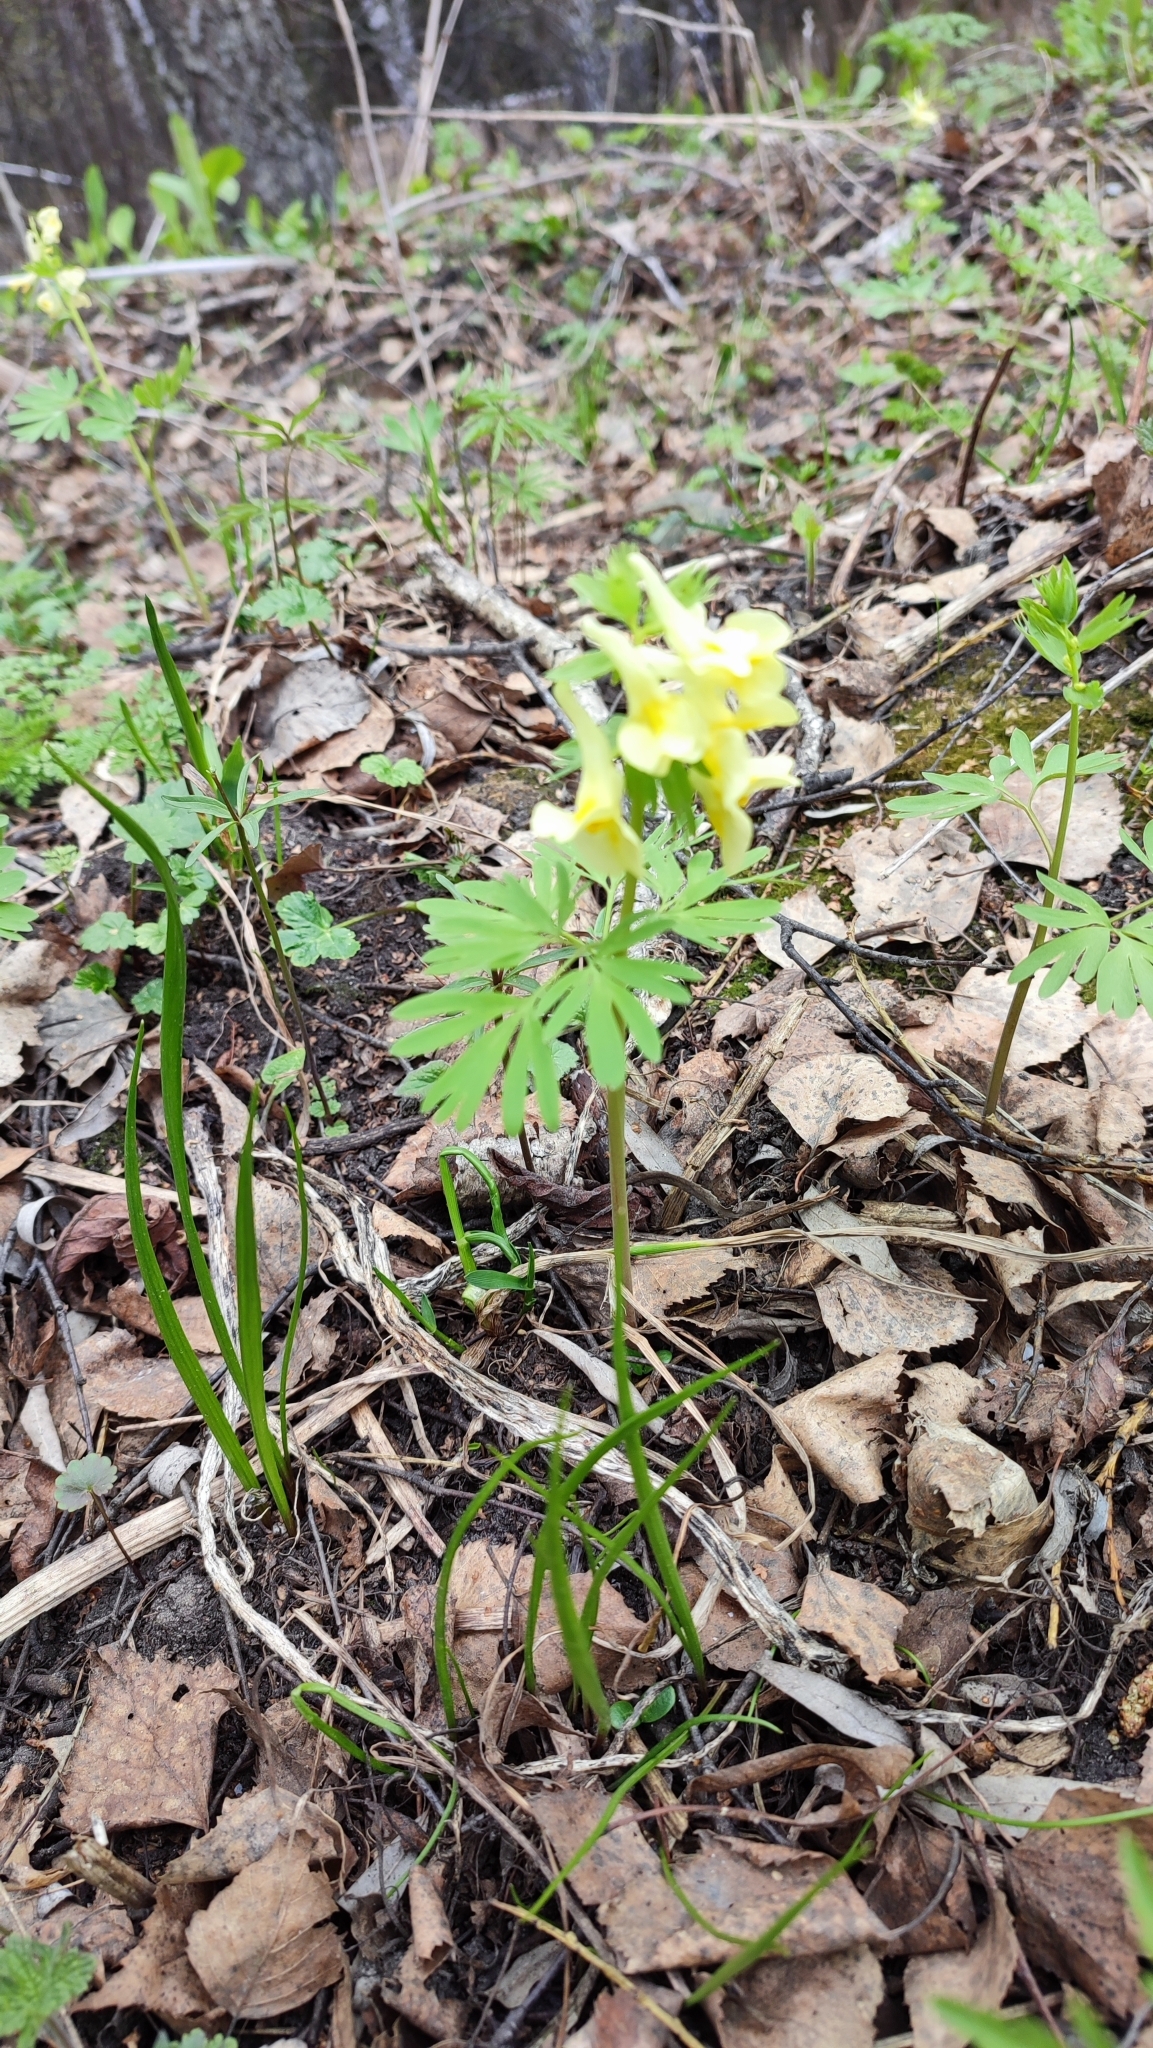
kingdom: Plantae
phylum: Tracheophyta
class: Magnoliopsida
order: Ranunculales
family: Papaveraceae
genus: Corydalis
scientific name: Corydalis bracteata
